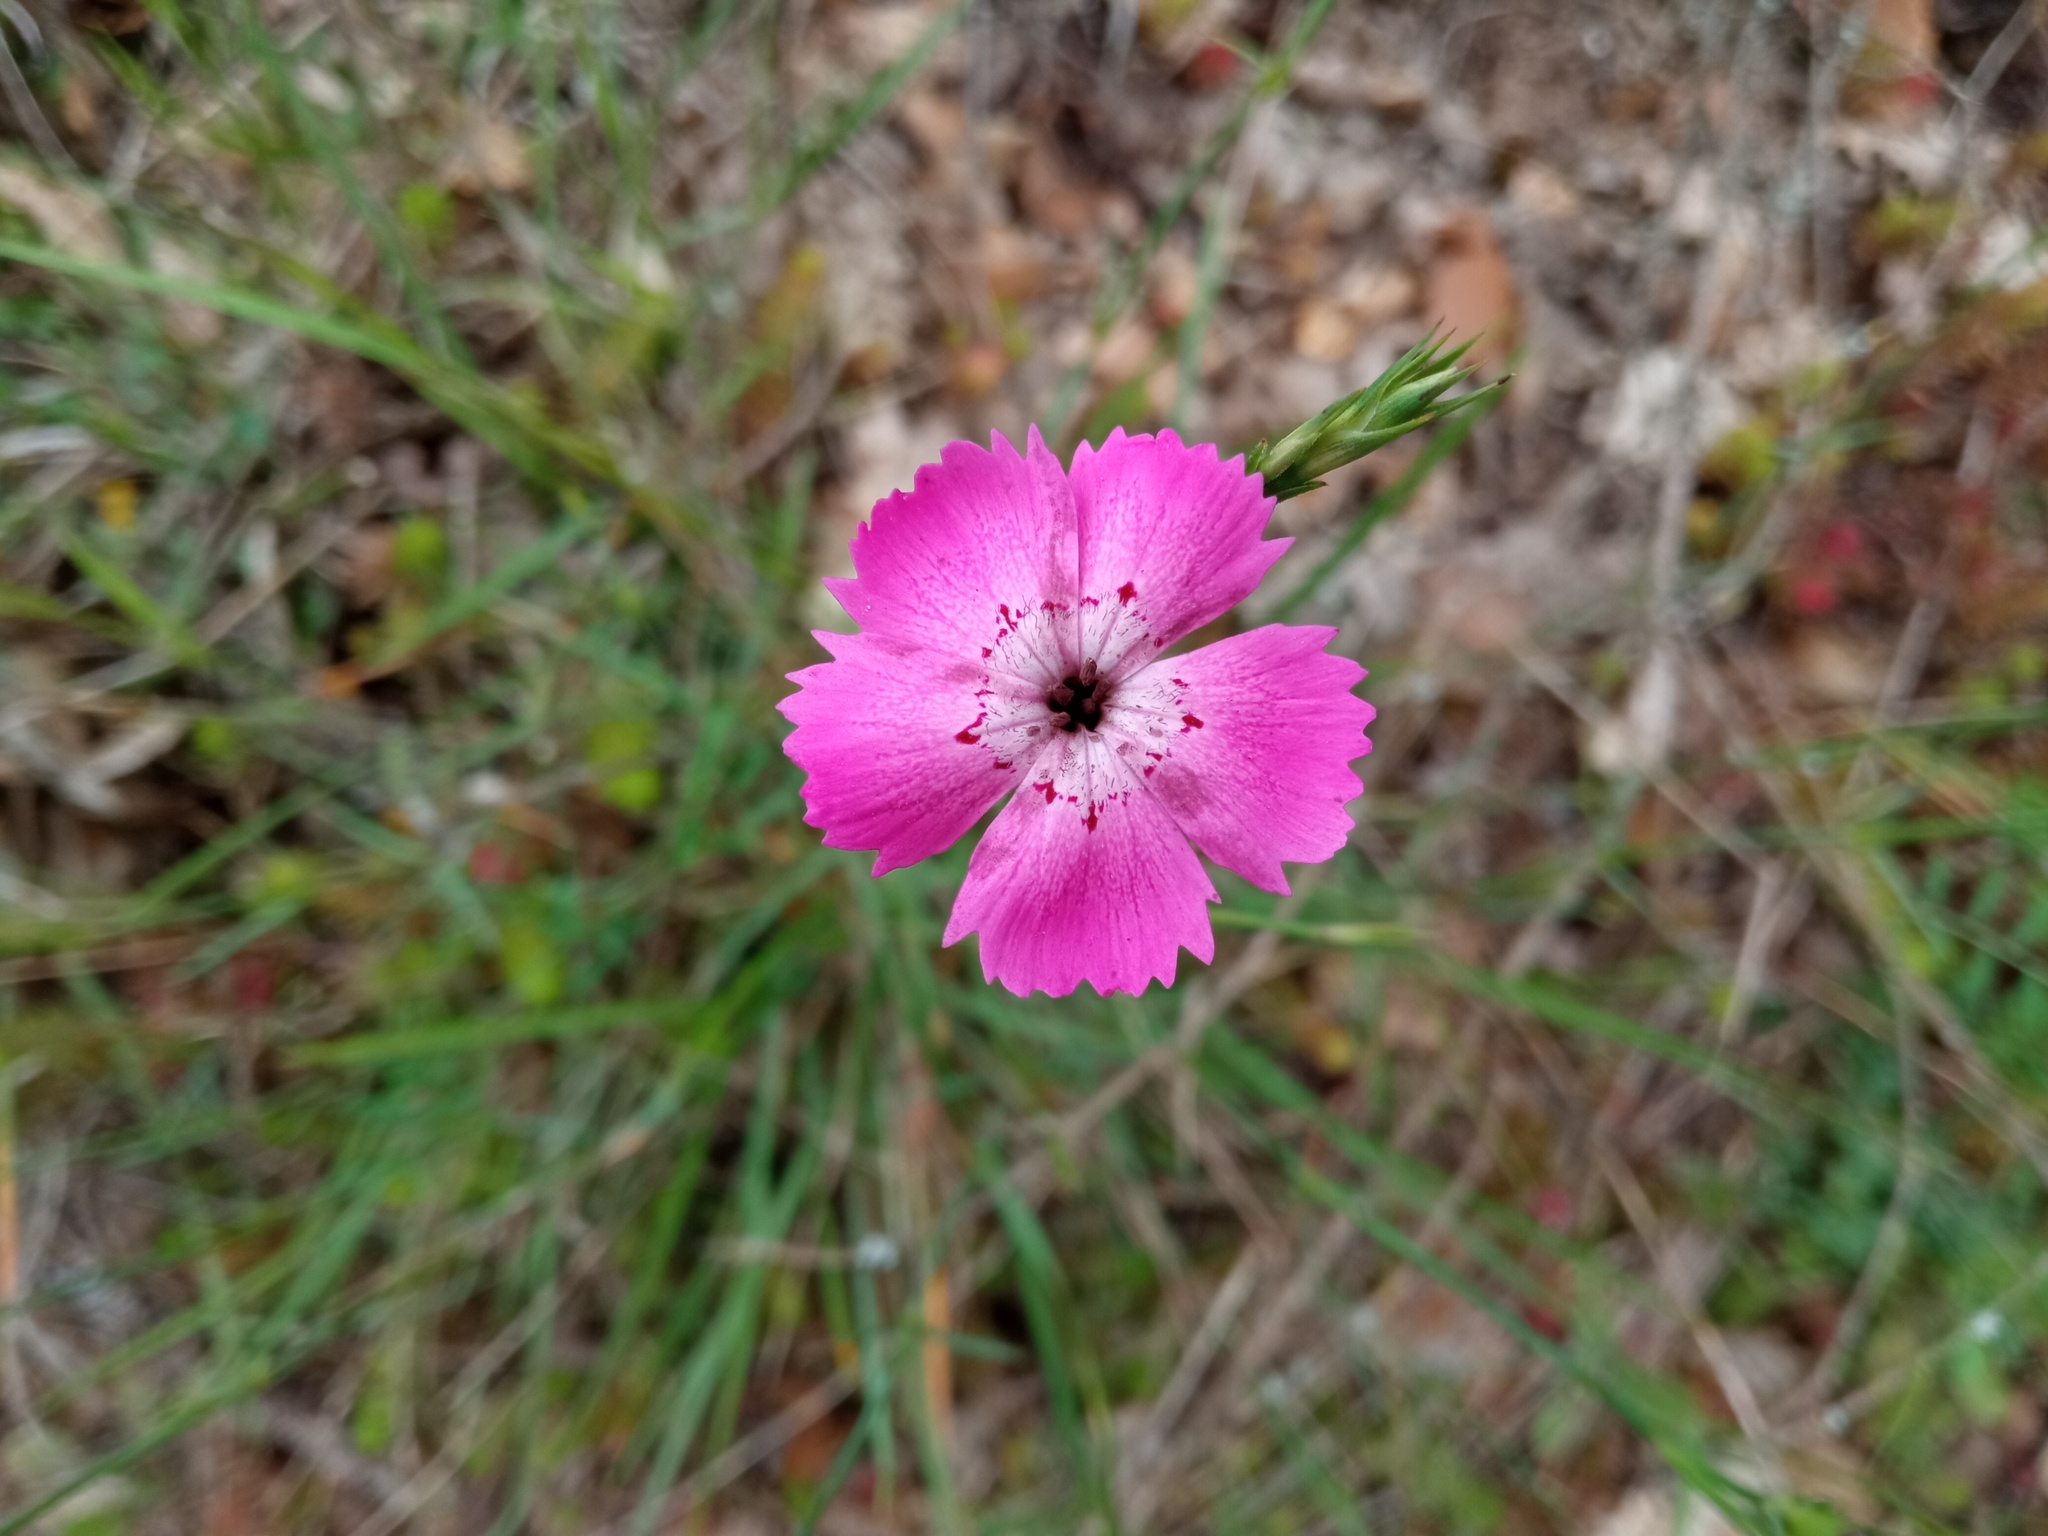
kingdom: Plantae
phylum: Tracheophyta
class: Magnoliopsida
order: Caryophyllales
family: Caryophyllaceae
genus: Dianthus
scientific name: Dianthus seguieri
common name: Ragged pink
